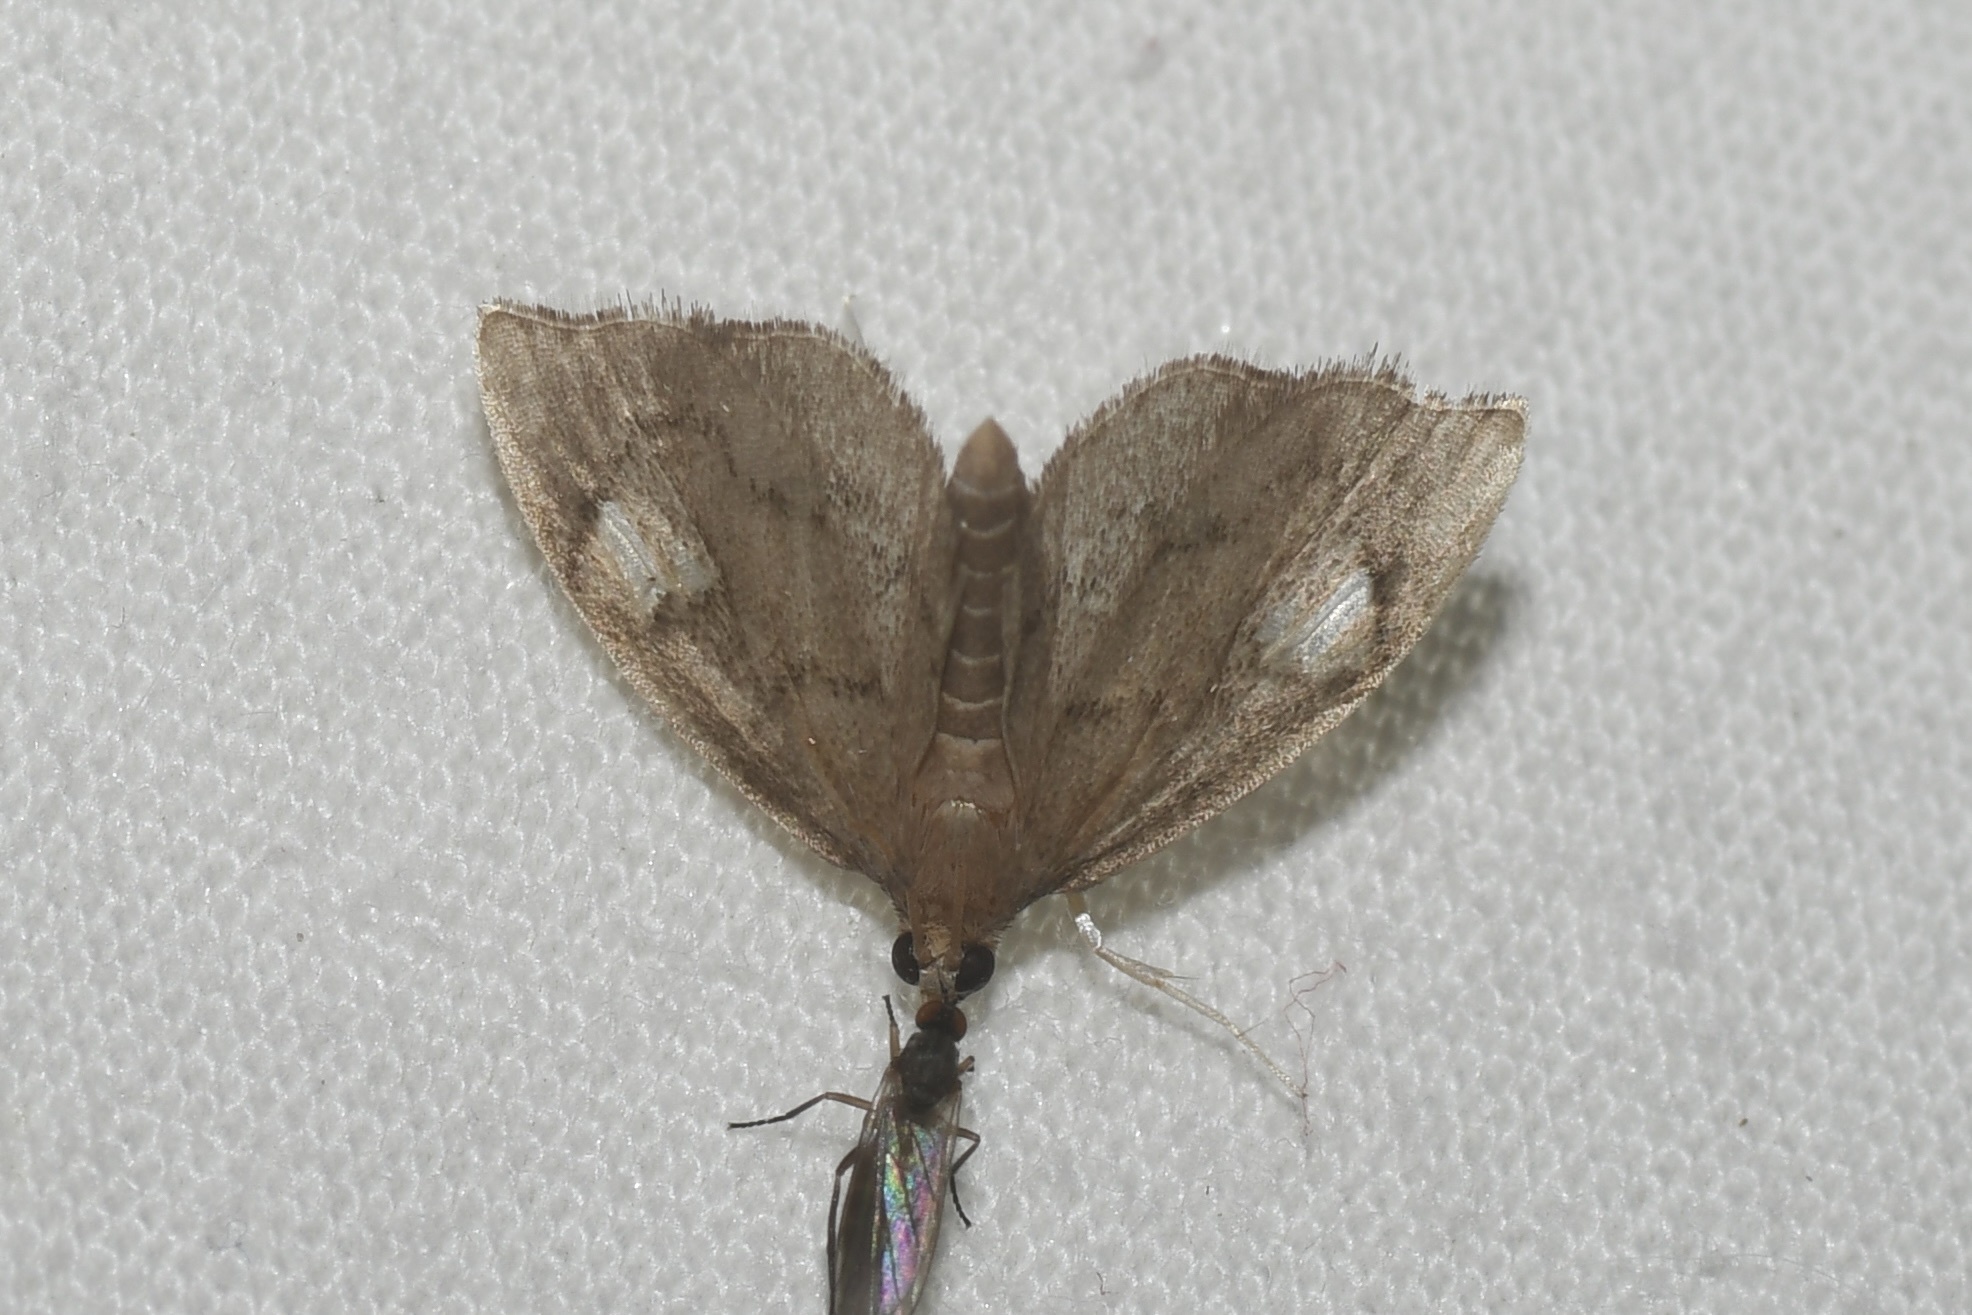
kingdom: Animalia
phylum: Arthropoda
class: Insecta
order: Lepidoptera
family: Crambidae
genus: Perispasta
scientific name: Perispasta caeculalis
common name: Titian peale's moth
